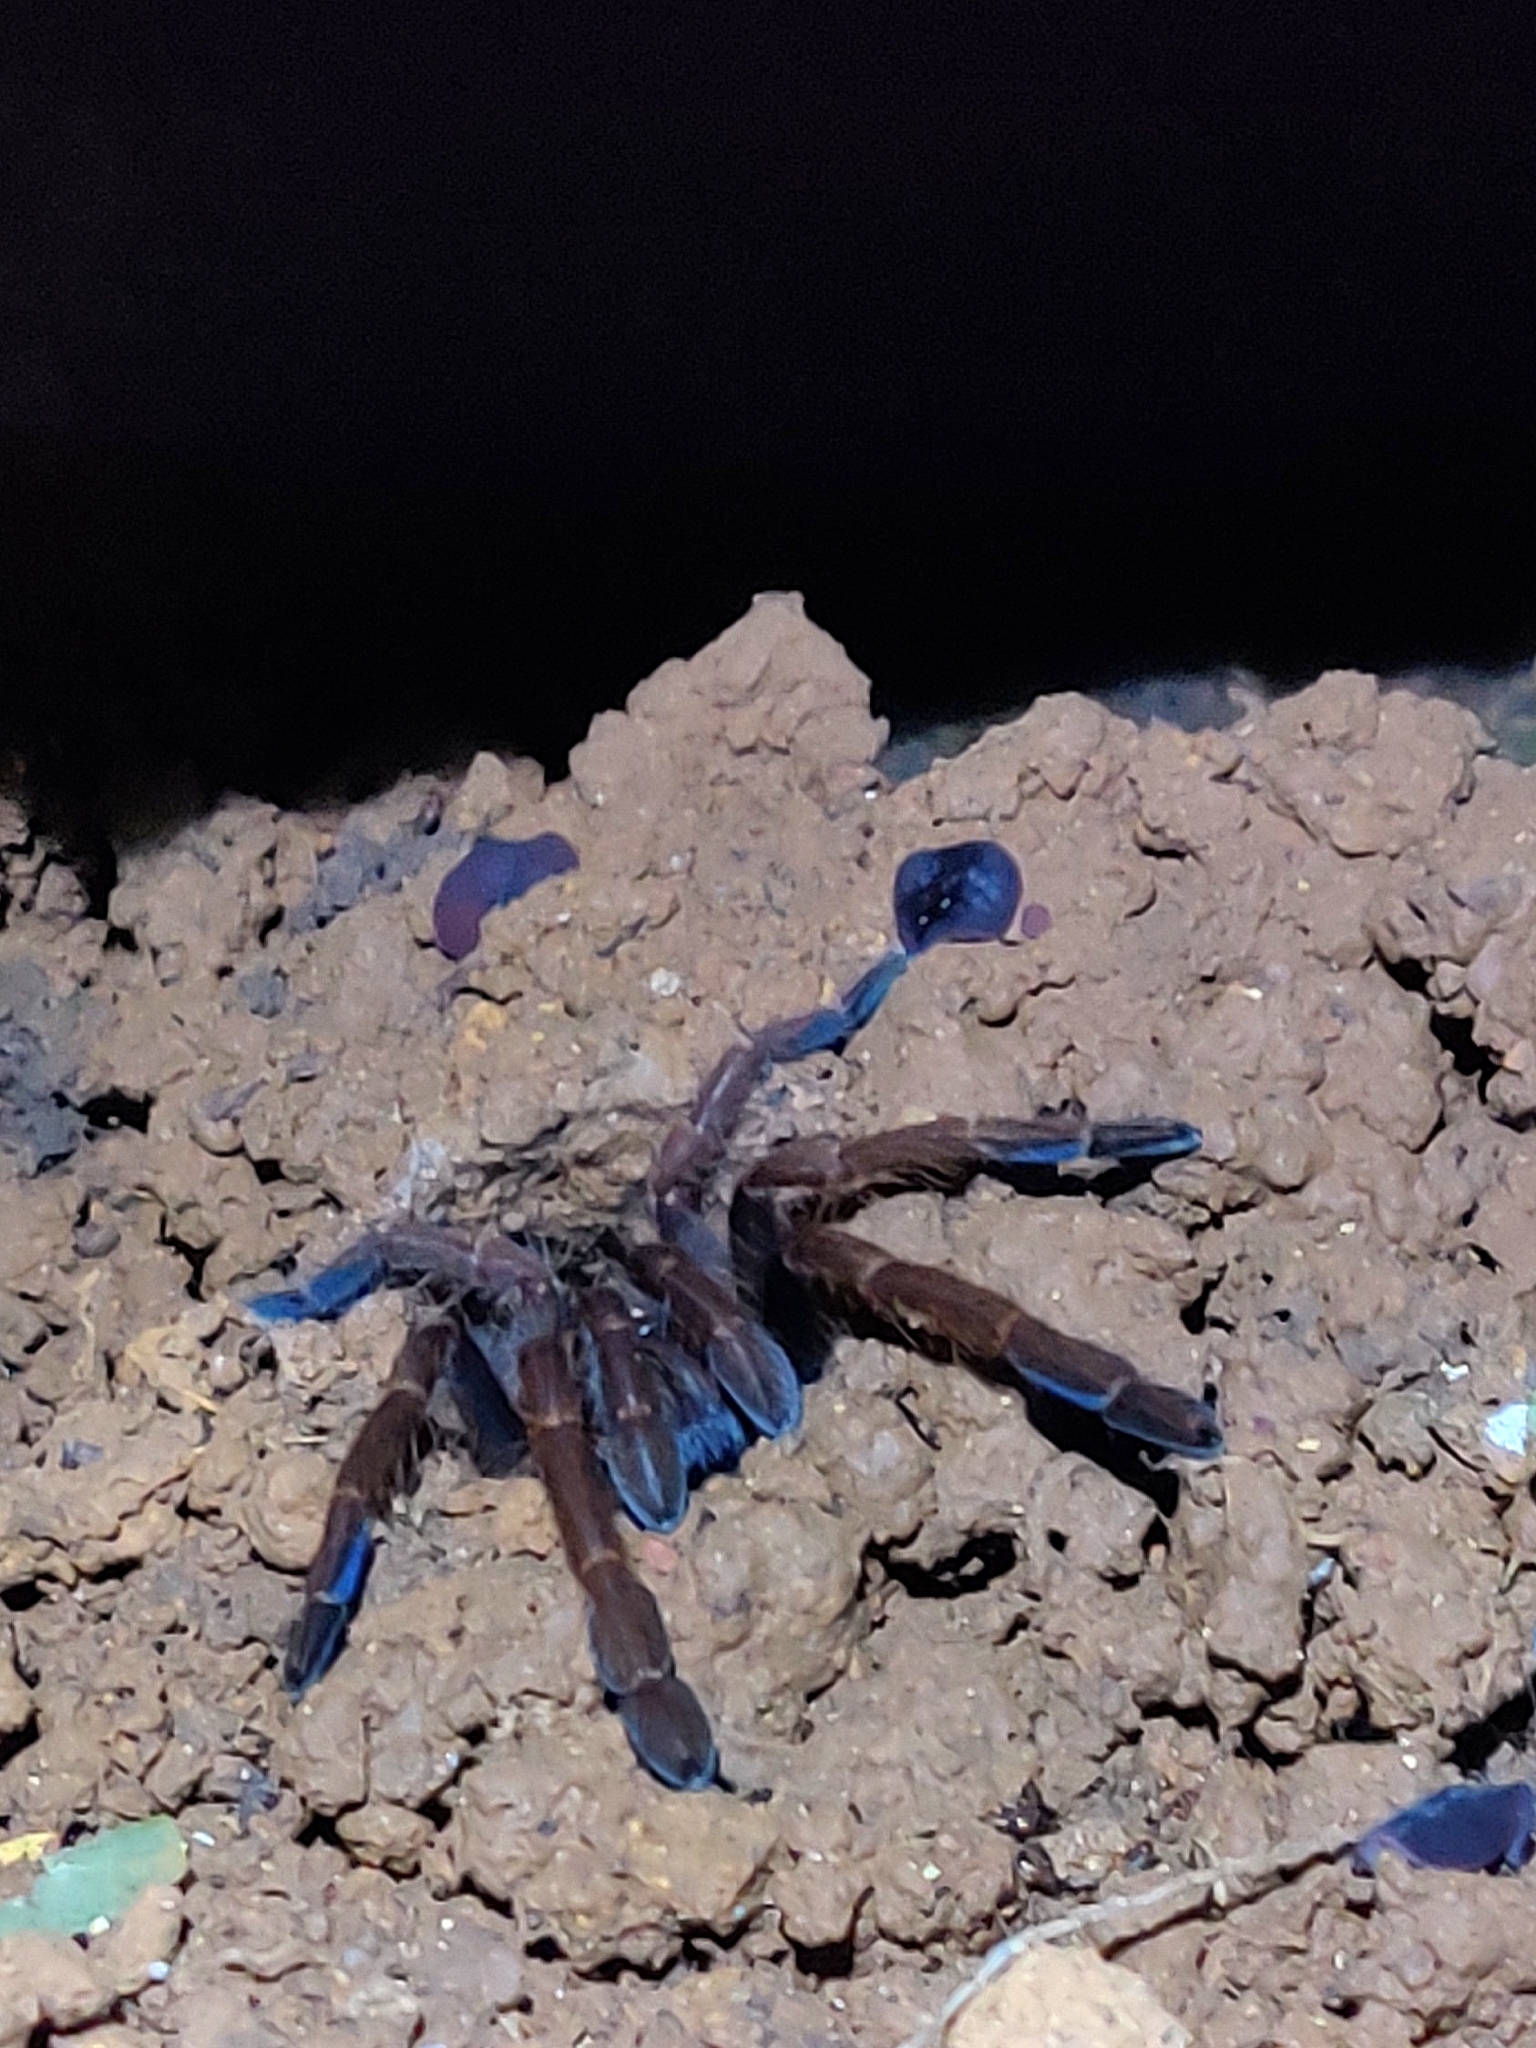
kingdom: Animalia
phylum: Arthropoda
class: Arachnida
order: Araneae
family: Theraphosidae
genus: Thrigmopoeus
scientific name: Thrigmopoeus truculentus
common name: Karwar large burrowing spider
